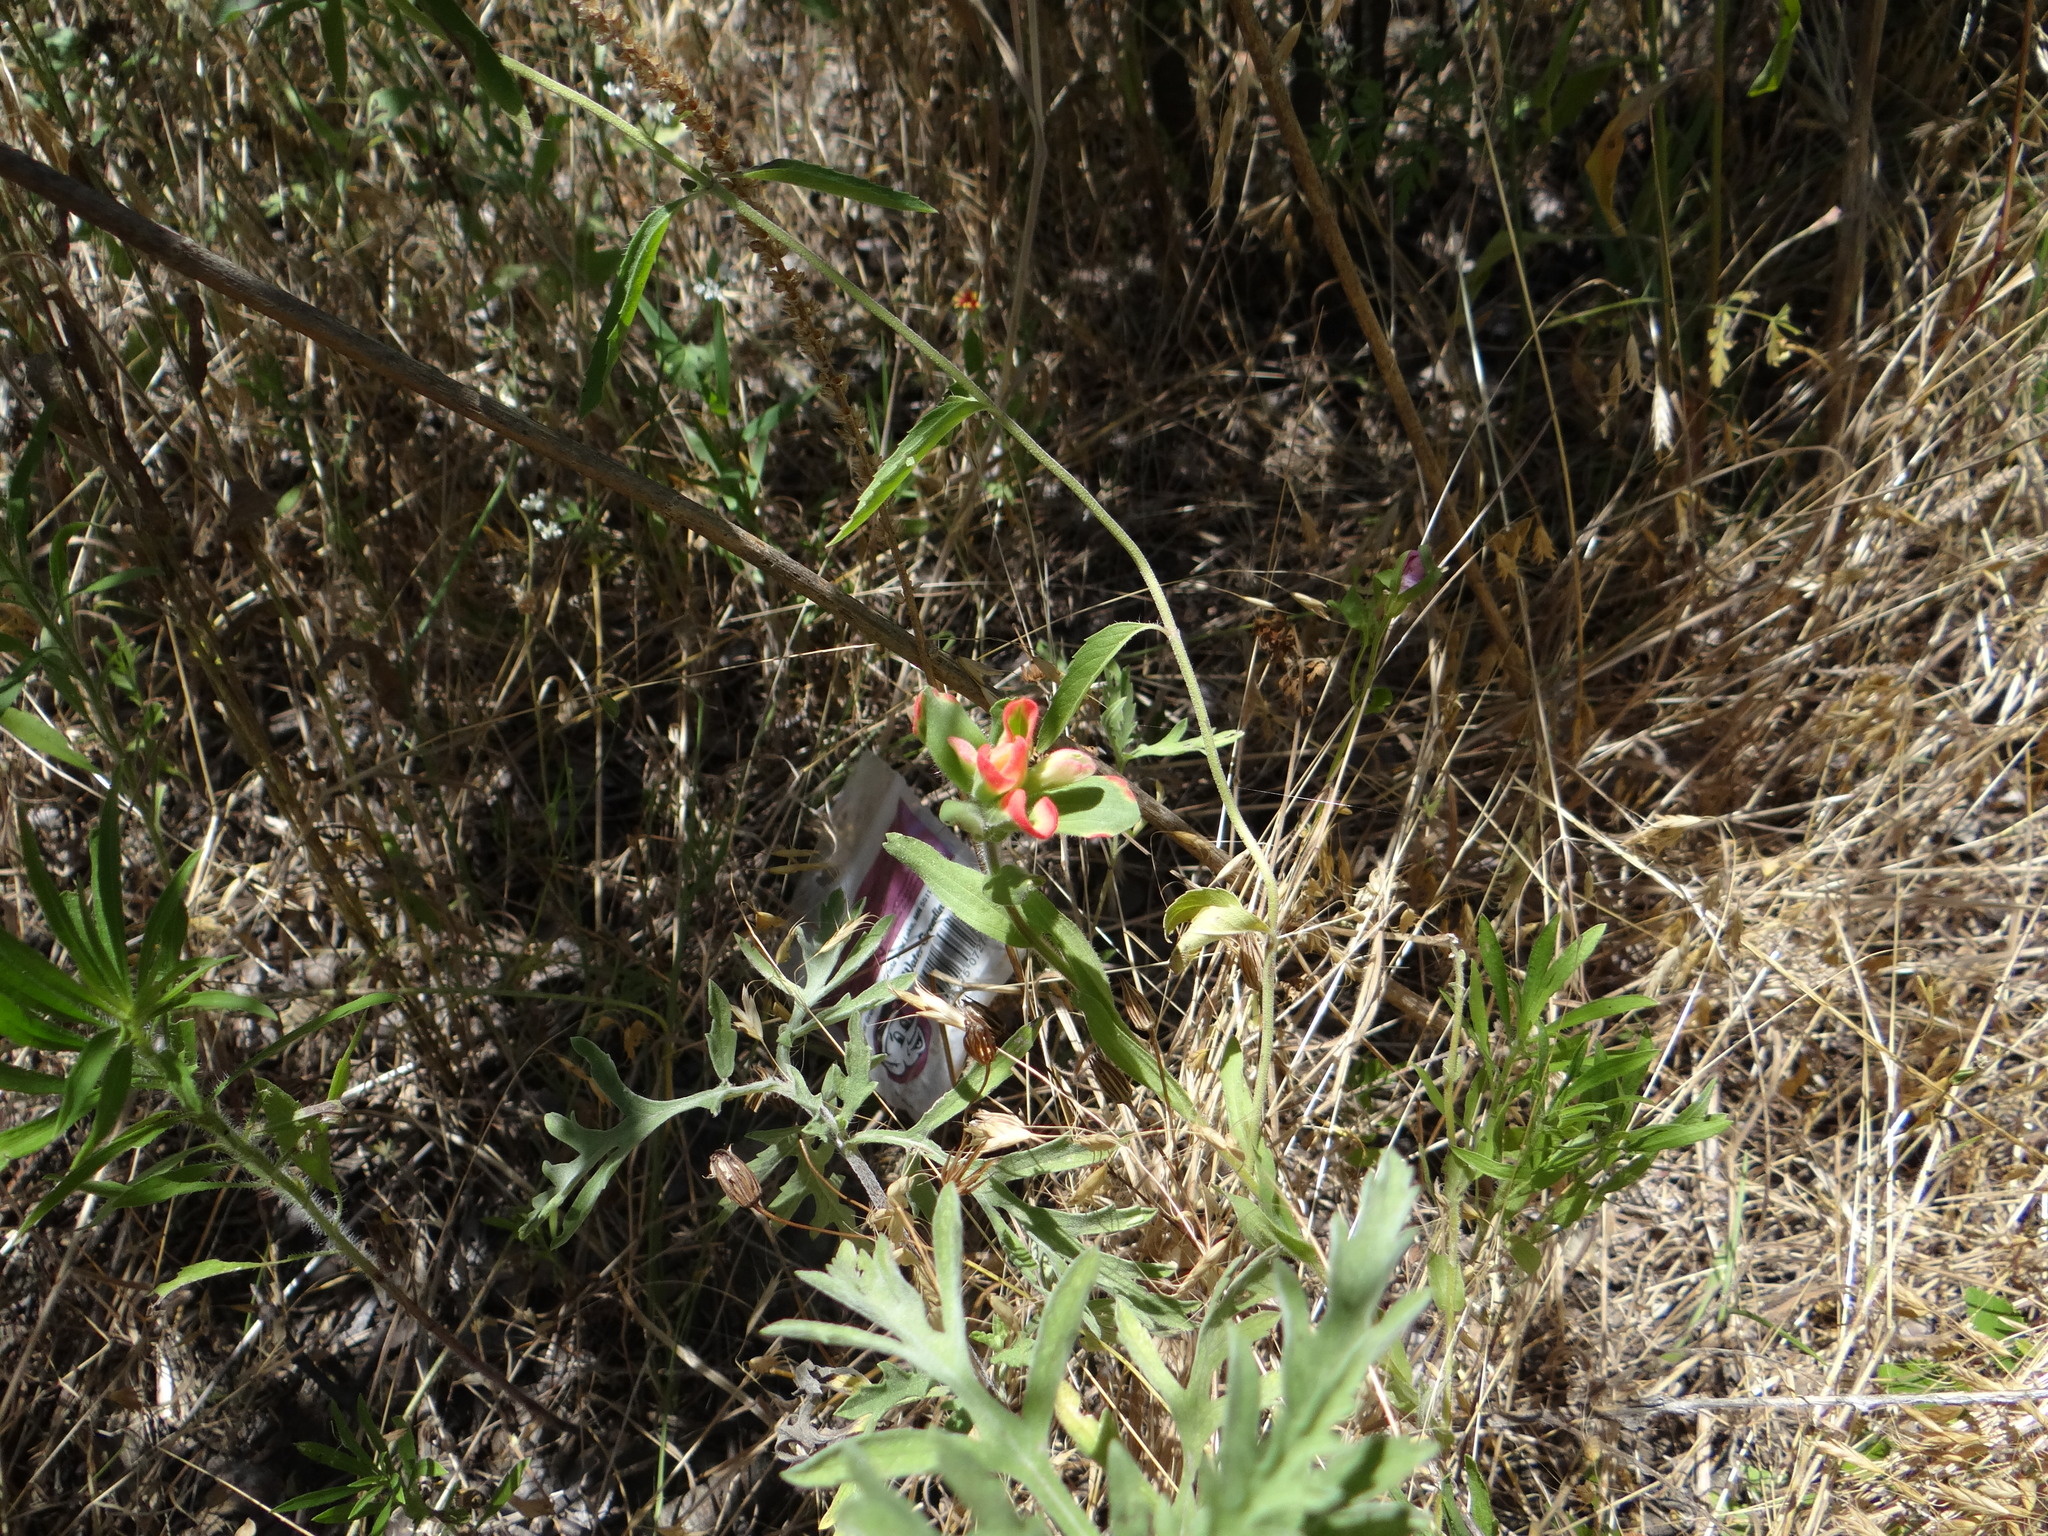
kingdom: Plantae
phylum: Tracheophyta
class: Magnoliopsida
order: Lamiales
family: Orobanchaceae
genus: Castilleja
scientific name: Castilleja indivisa
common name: Texas paintbrush
